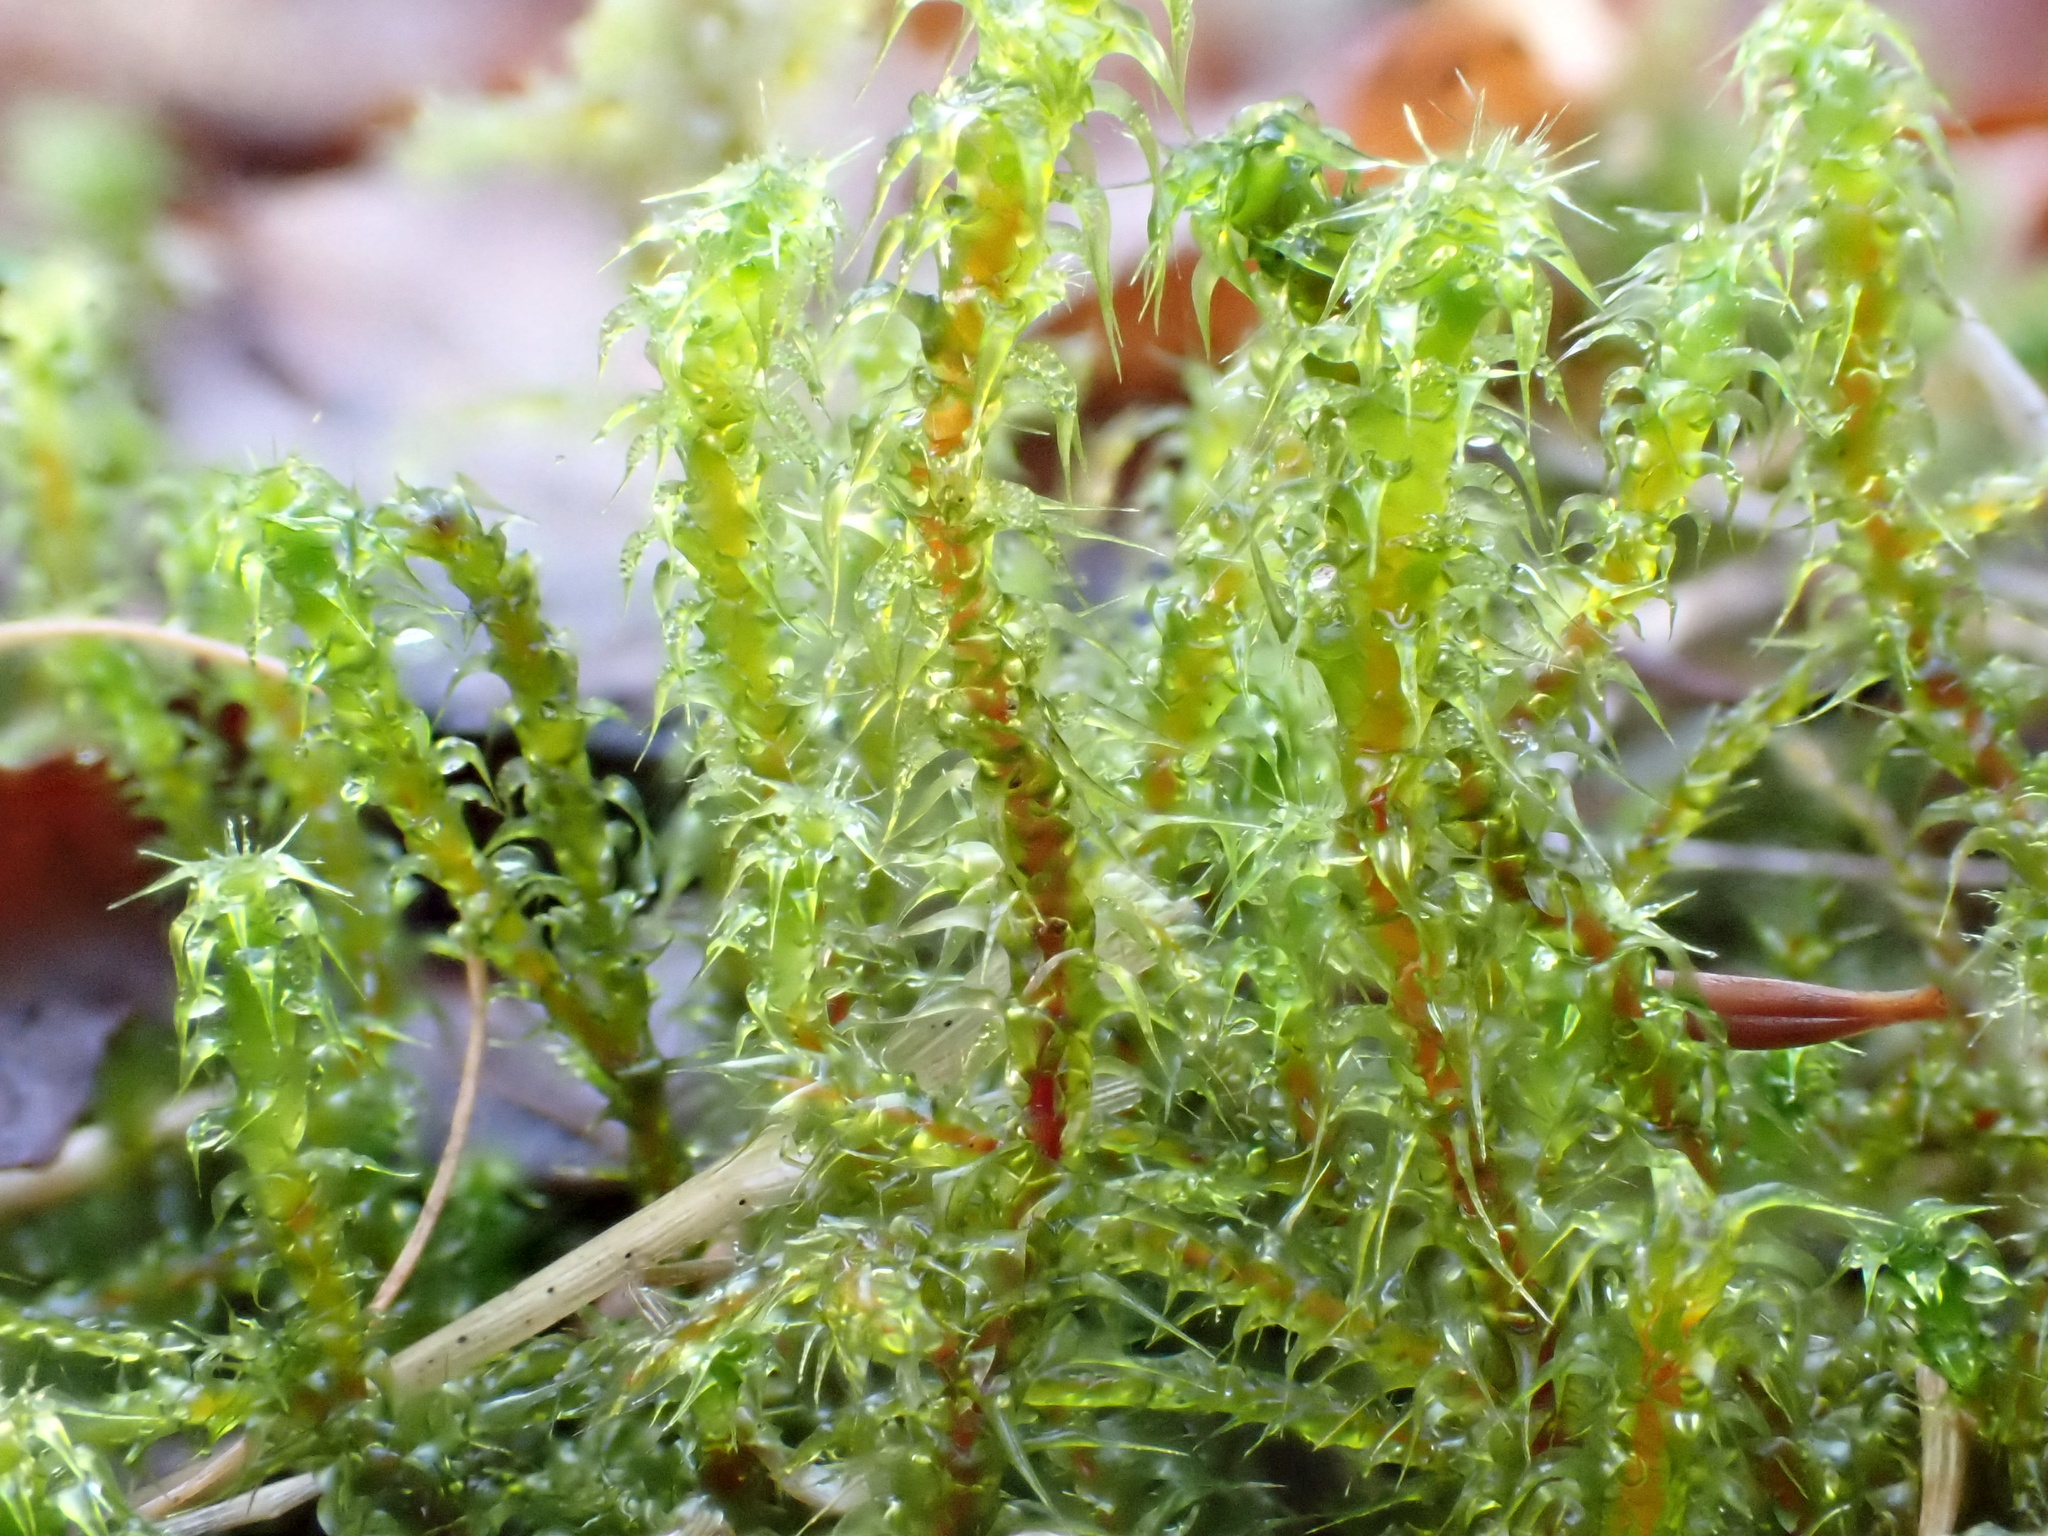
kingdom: Plantae
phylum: Bryophyta
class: Bryopsida
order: Hypnales
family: Hylocomiaceae
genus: Rhytidiadelphus
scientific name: Rhytidiadelphus squarrosus
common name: Springy turf-moss
